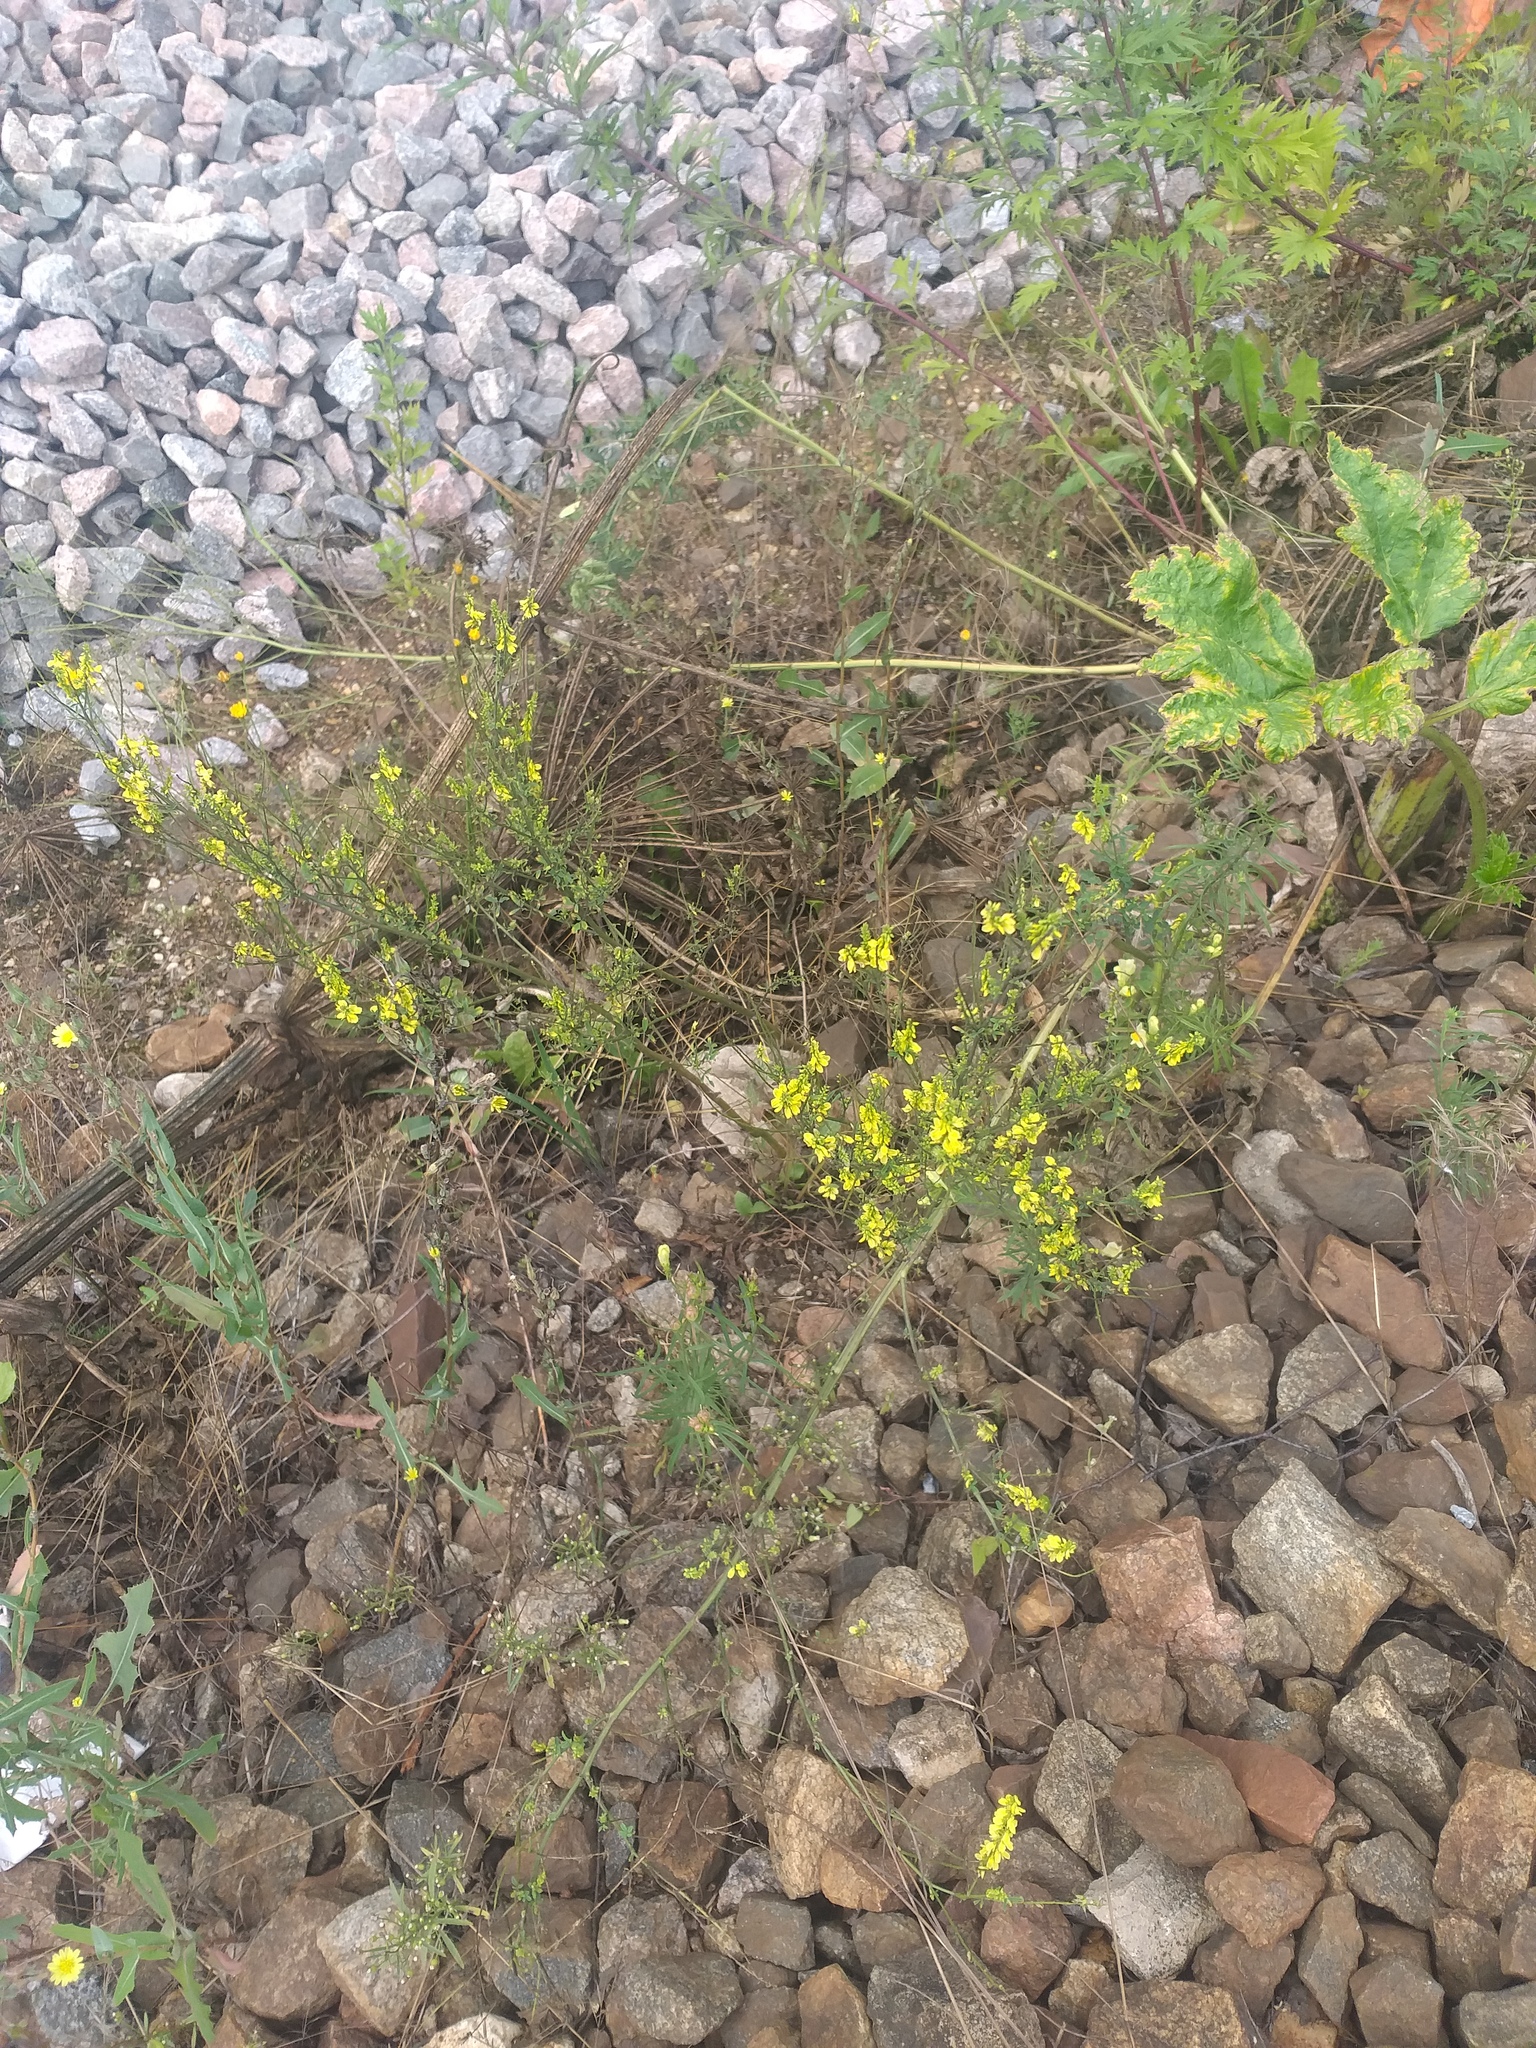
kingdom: Plantae
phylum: Tracheophyta
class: Magnoliopsida
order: Fabales
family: Fabaceae
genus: Melilotus
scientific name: Melilotus officinalis
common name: Sweetclover
